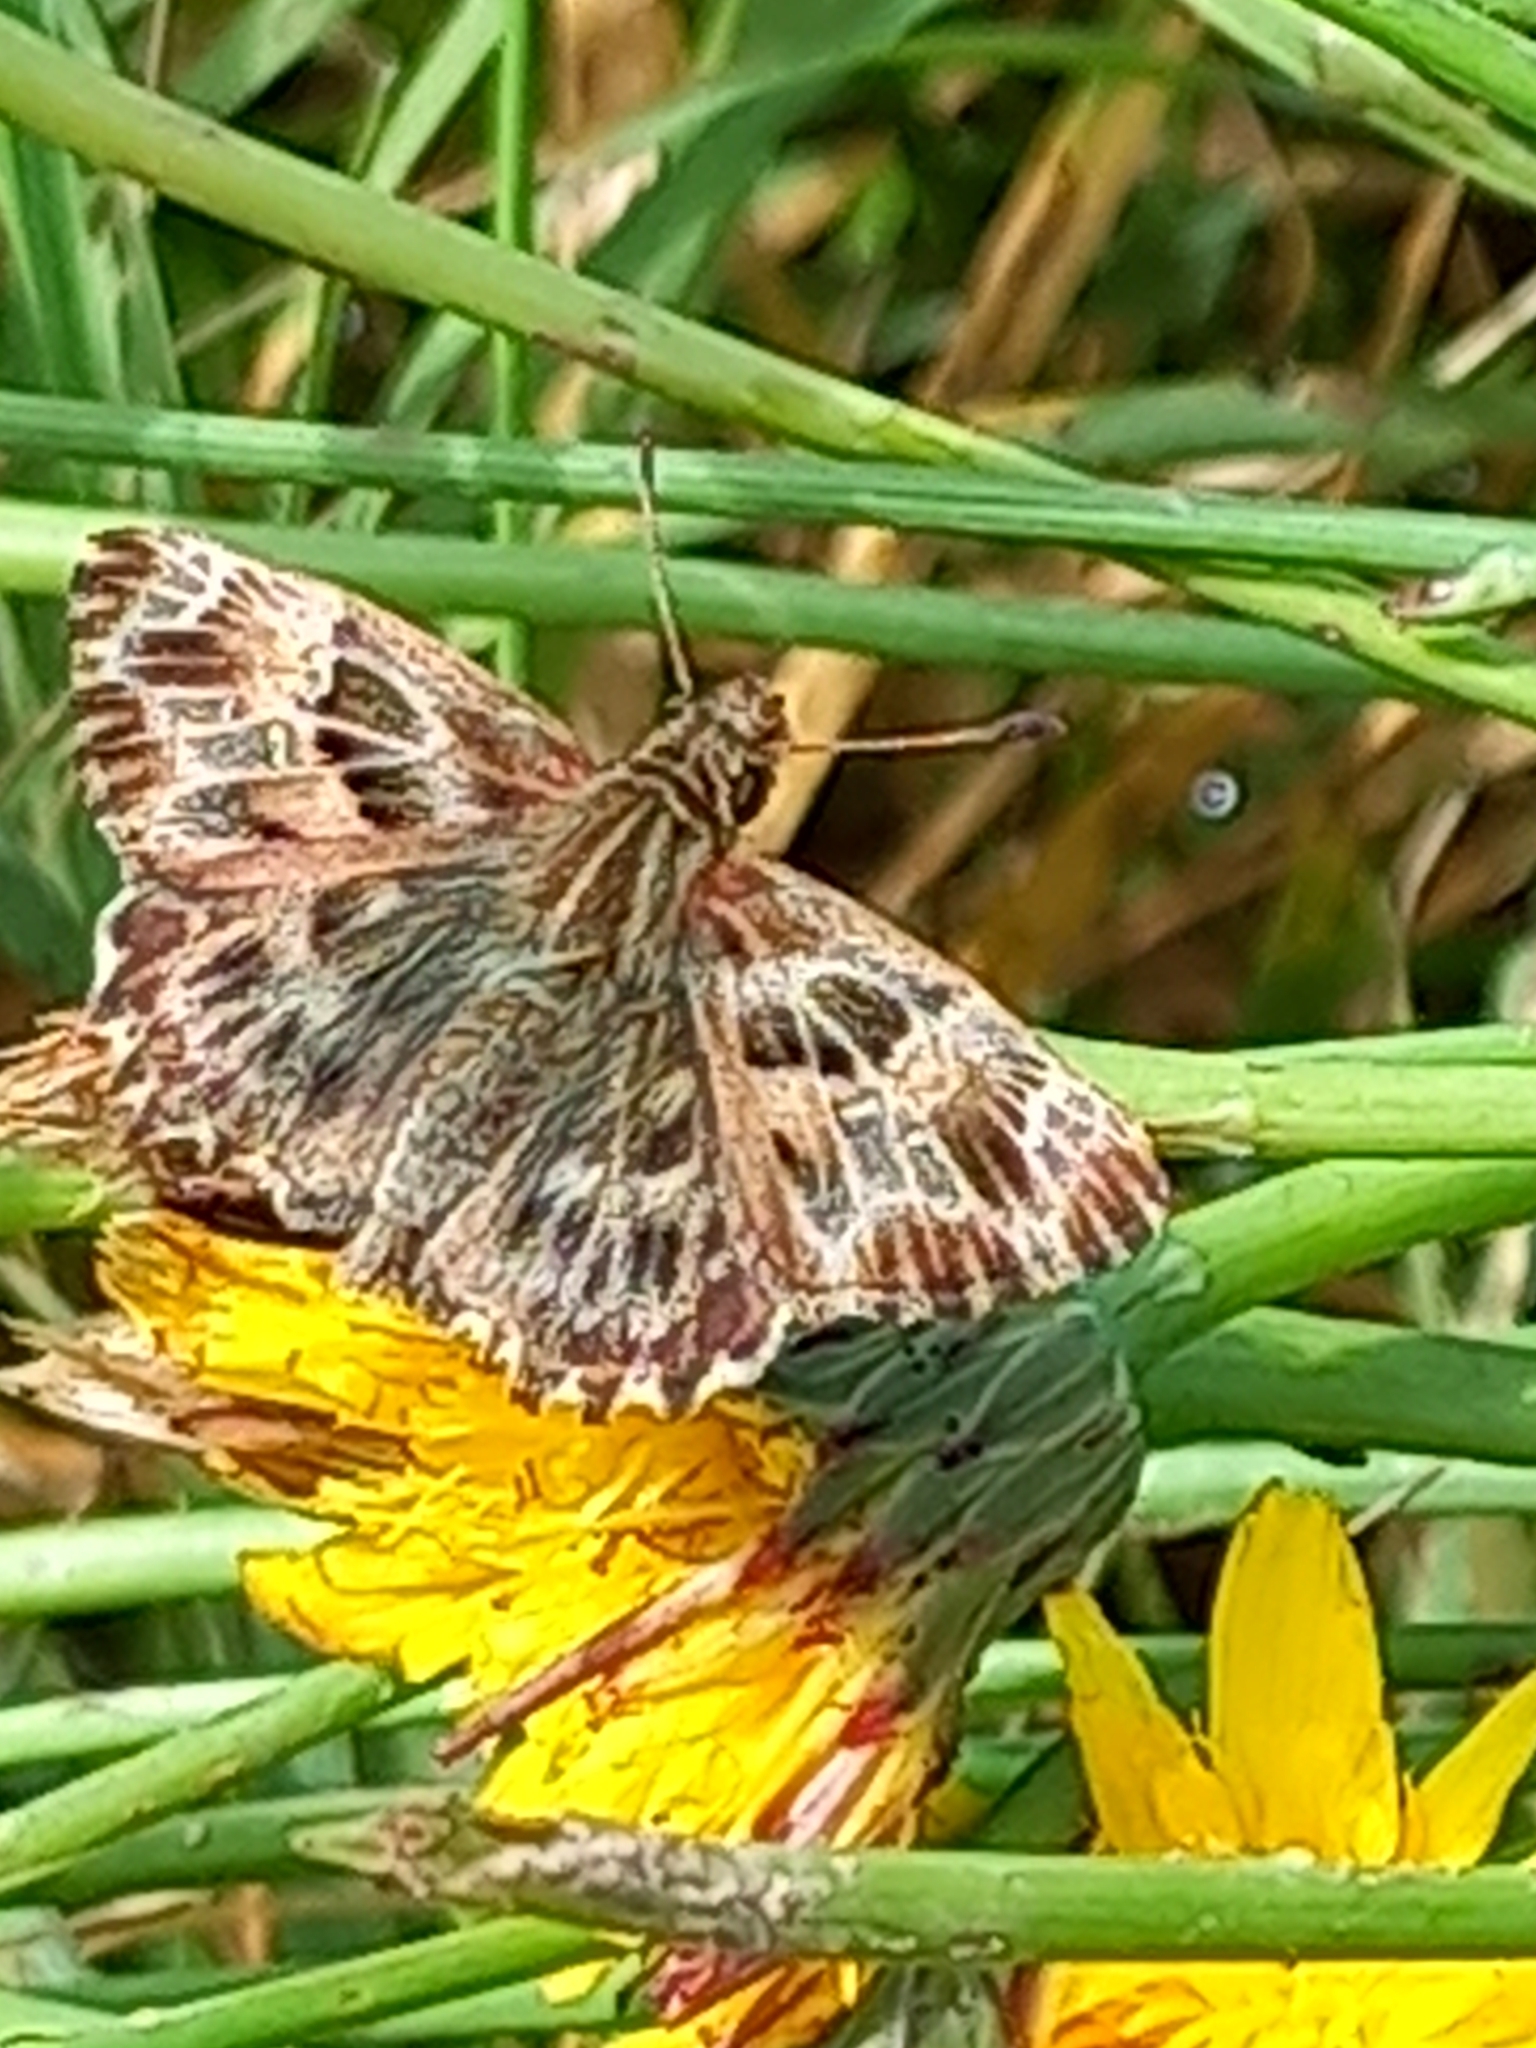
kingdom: Animalia
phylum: Arthropoda
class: Insecta
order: Lepidoptera
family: Hesperiidae
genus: Carcharodus
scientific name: Carcharodus alceae
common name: Mallow skipper
